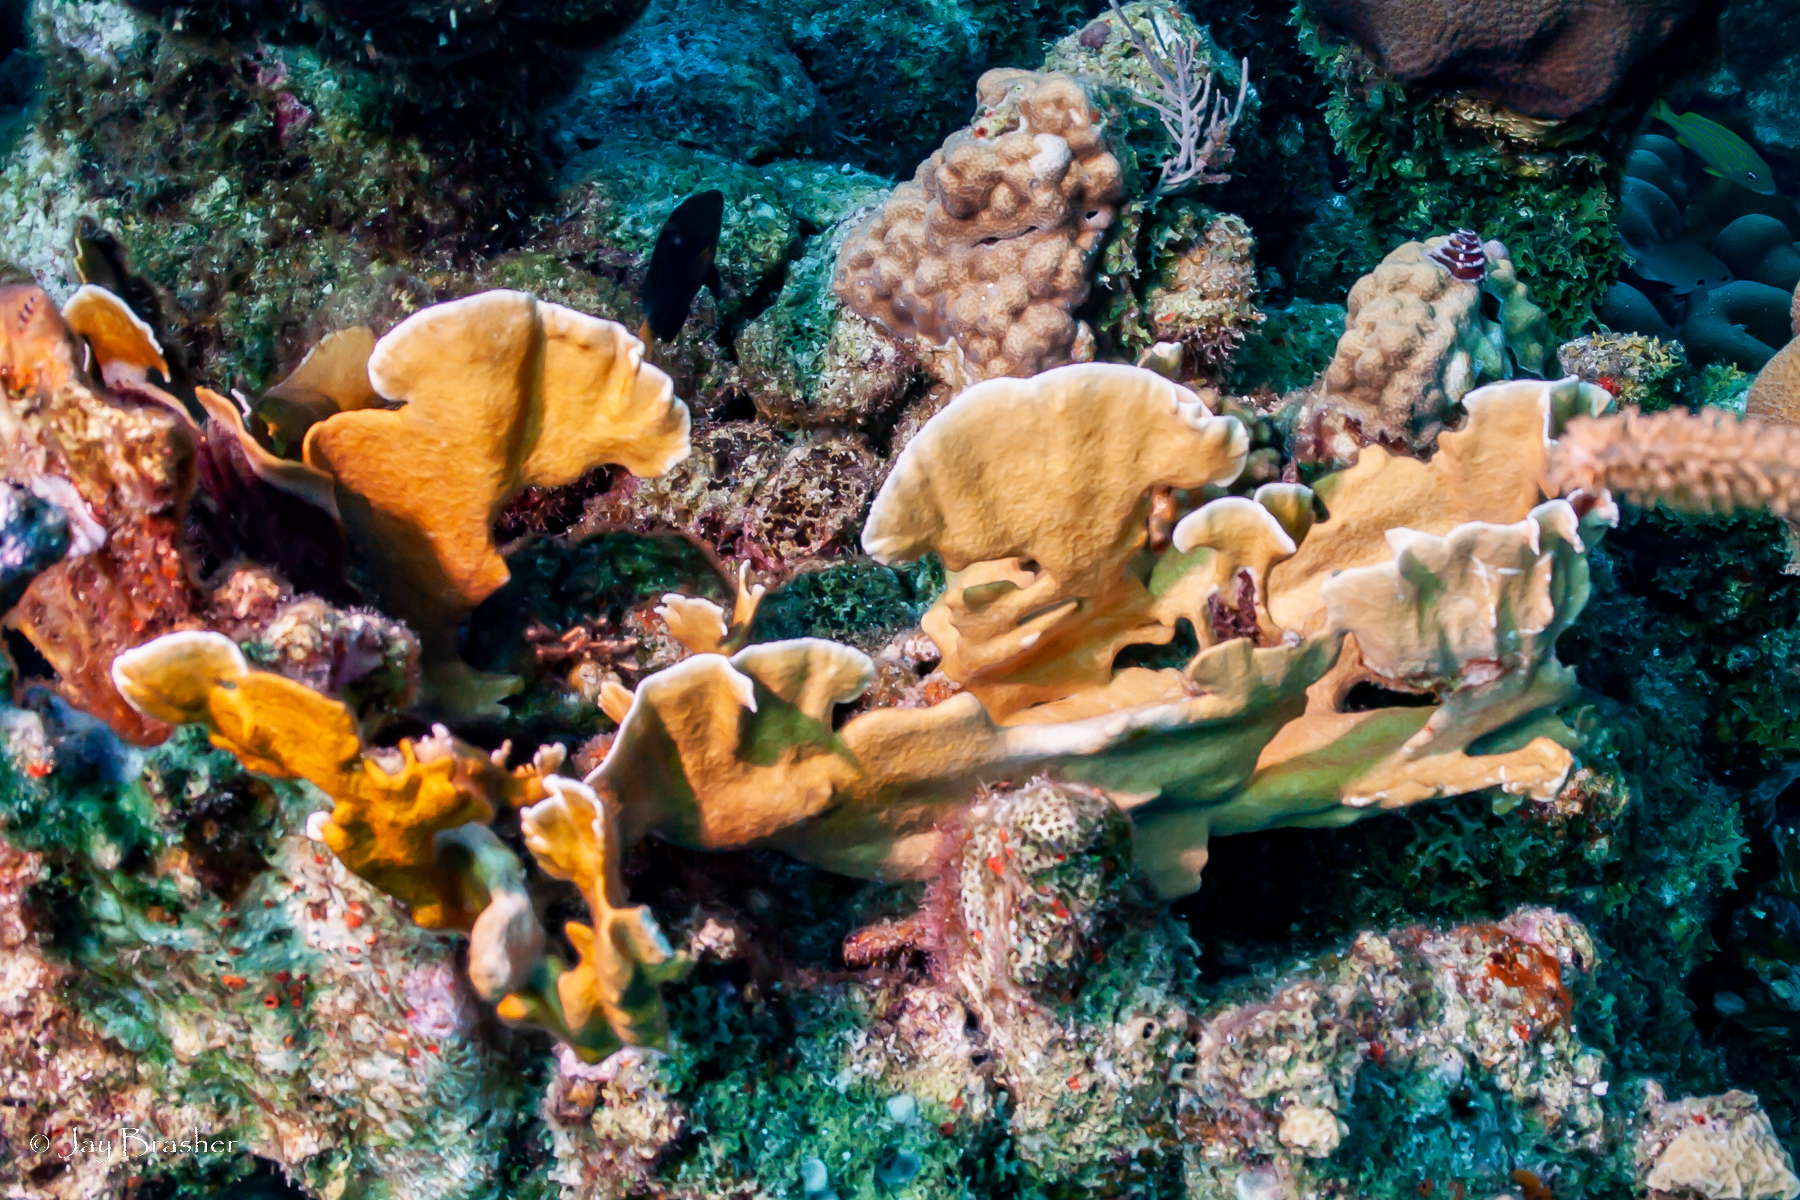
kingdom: Animalia
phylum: Cnidaria
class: Hydrozoa
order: Anthoathecata
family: Milleporidae
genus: Millepora
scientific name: Millepora complanata
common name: Bladed fire coral
